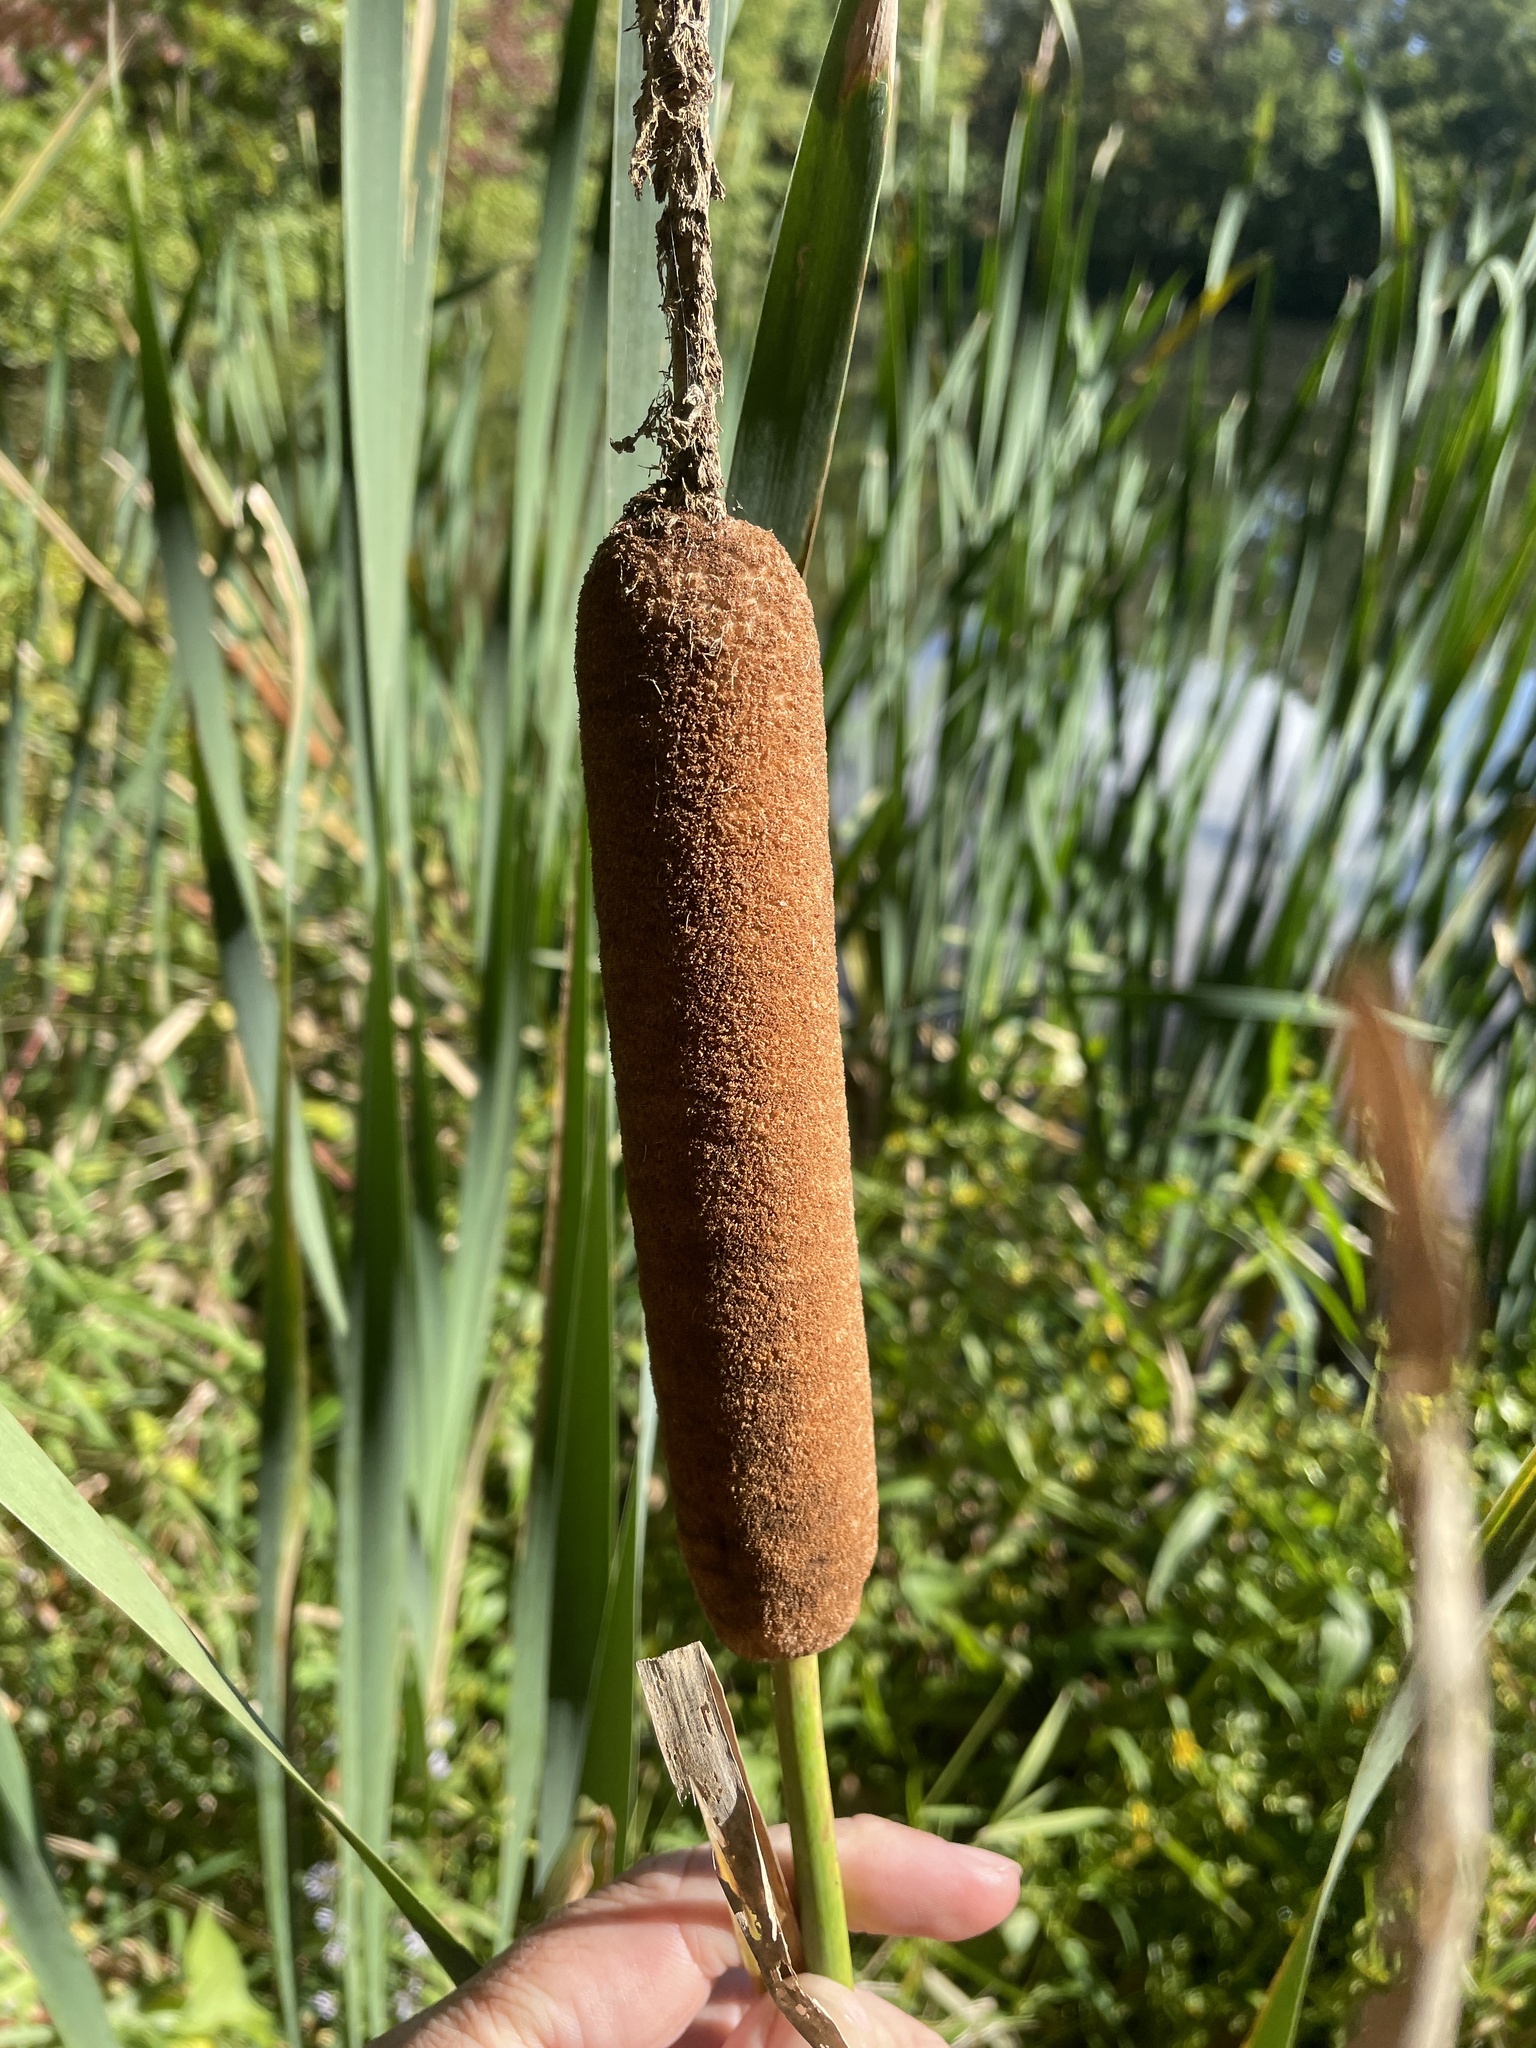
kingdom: Plantae
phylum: Tracheophyta
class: Liliopsida
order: Poales
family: Typhaceae
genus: Typha
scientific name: Typha latifolia
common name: Broadleaf cattail
